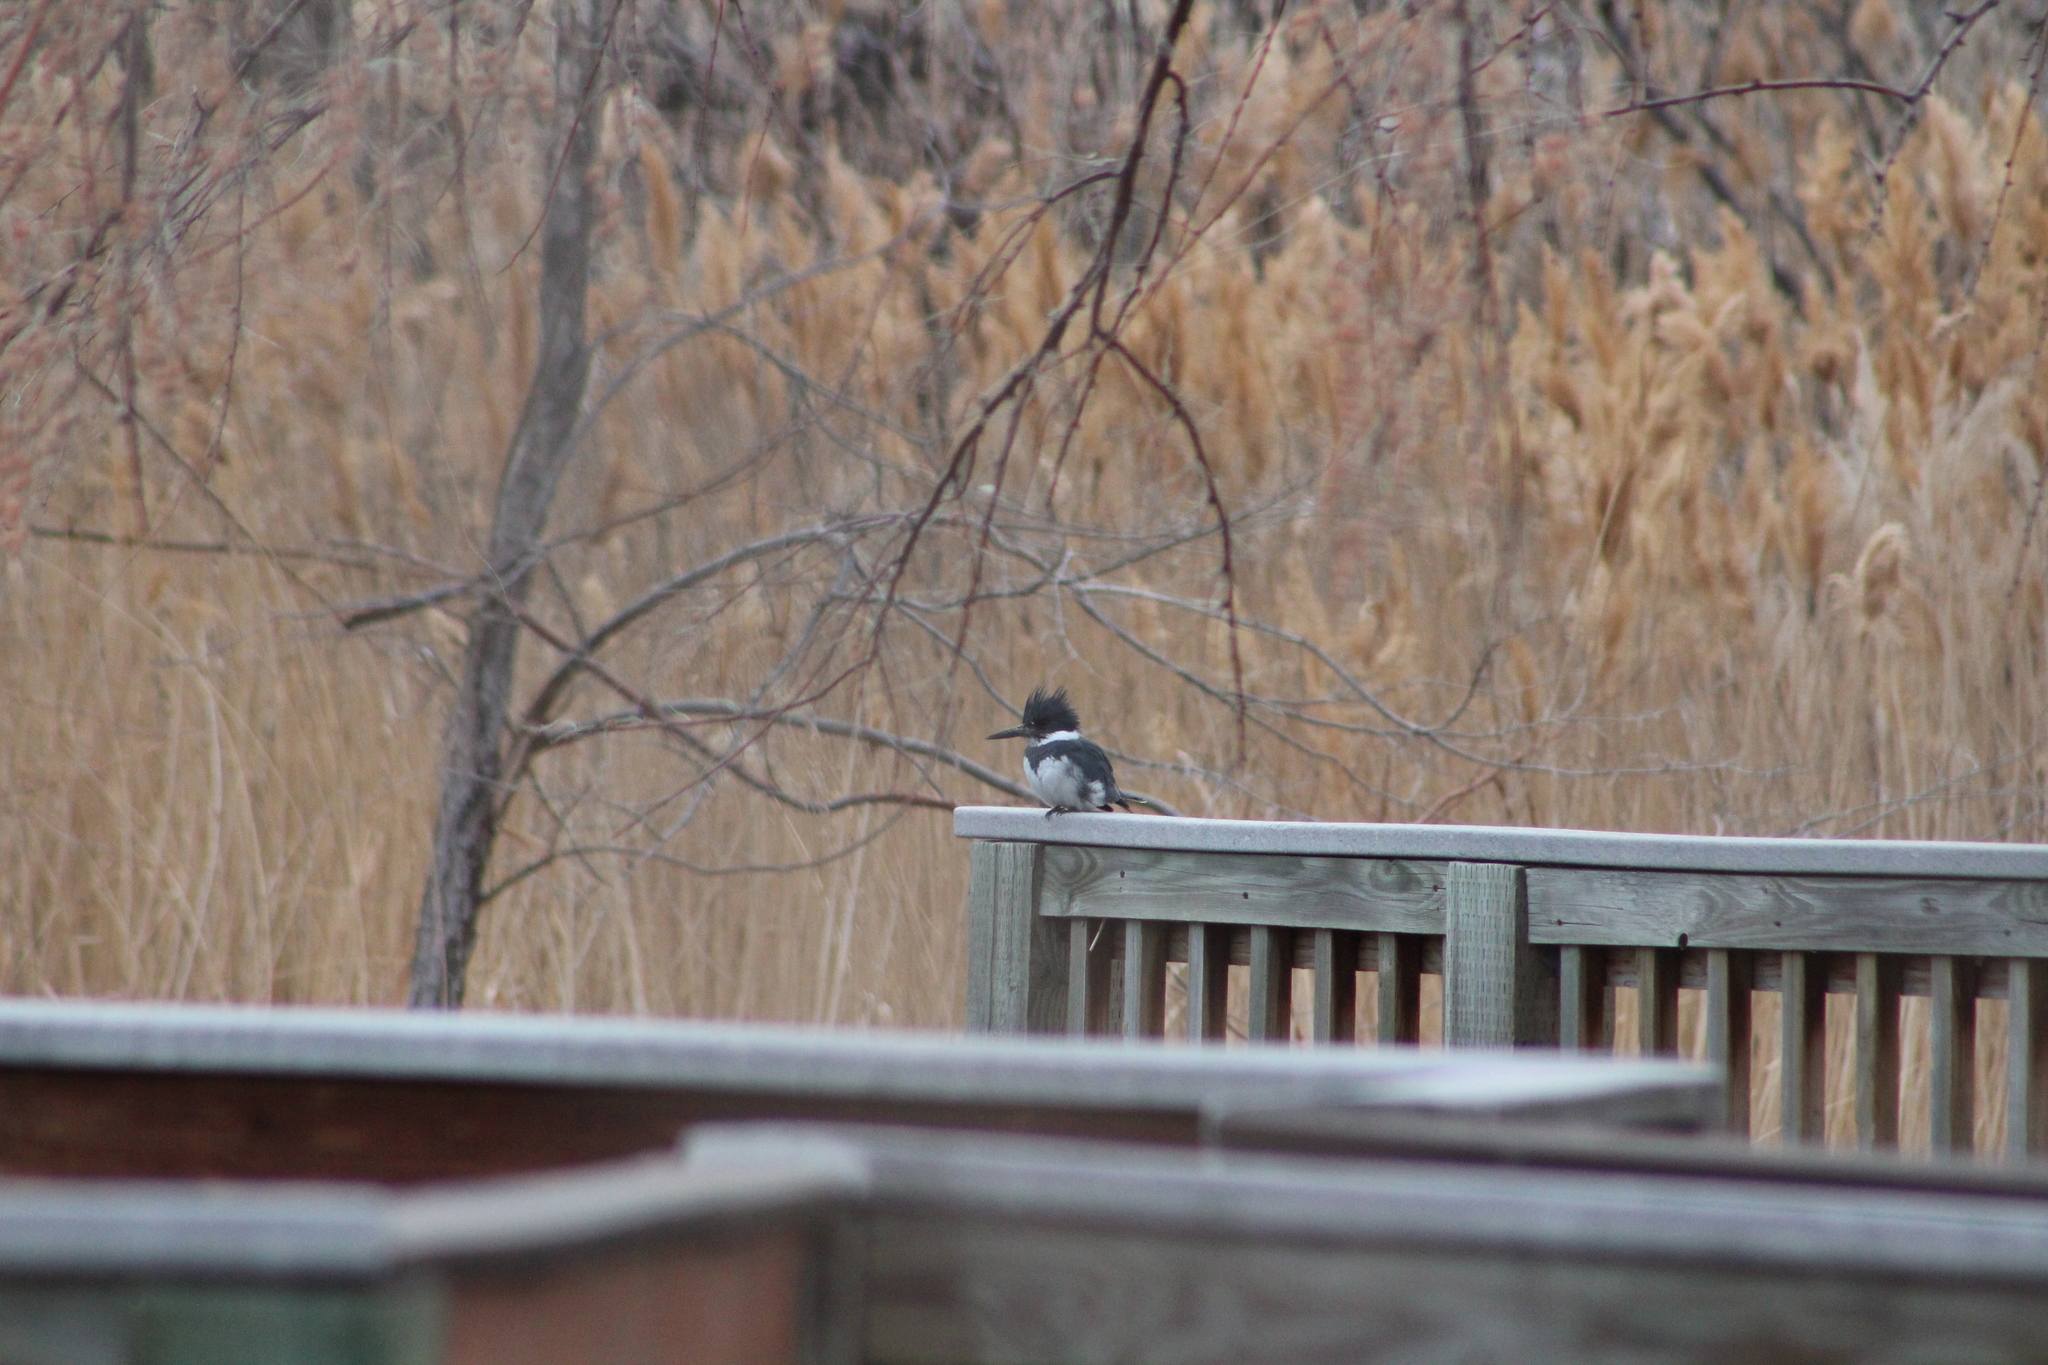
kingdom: Animalia
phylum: Chordata
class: Aves
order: Coraciiformes
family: Alcedinidae
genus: Megaceryle
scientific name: Megaceryle alcyon
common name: Belted kingfisher
